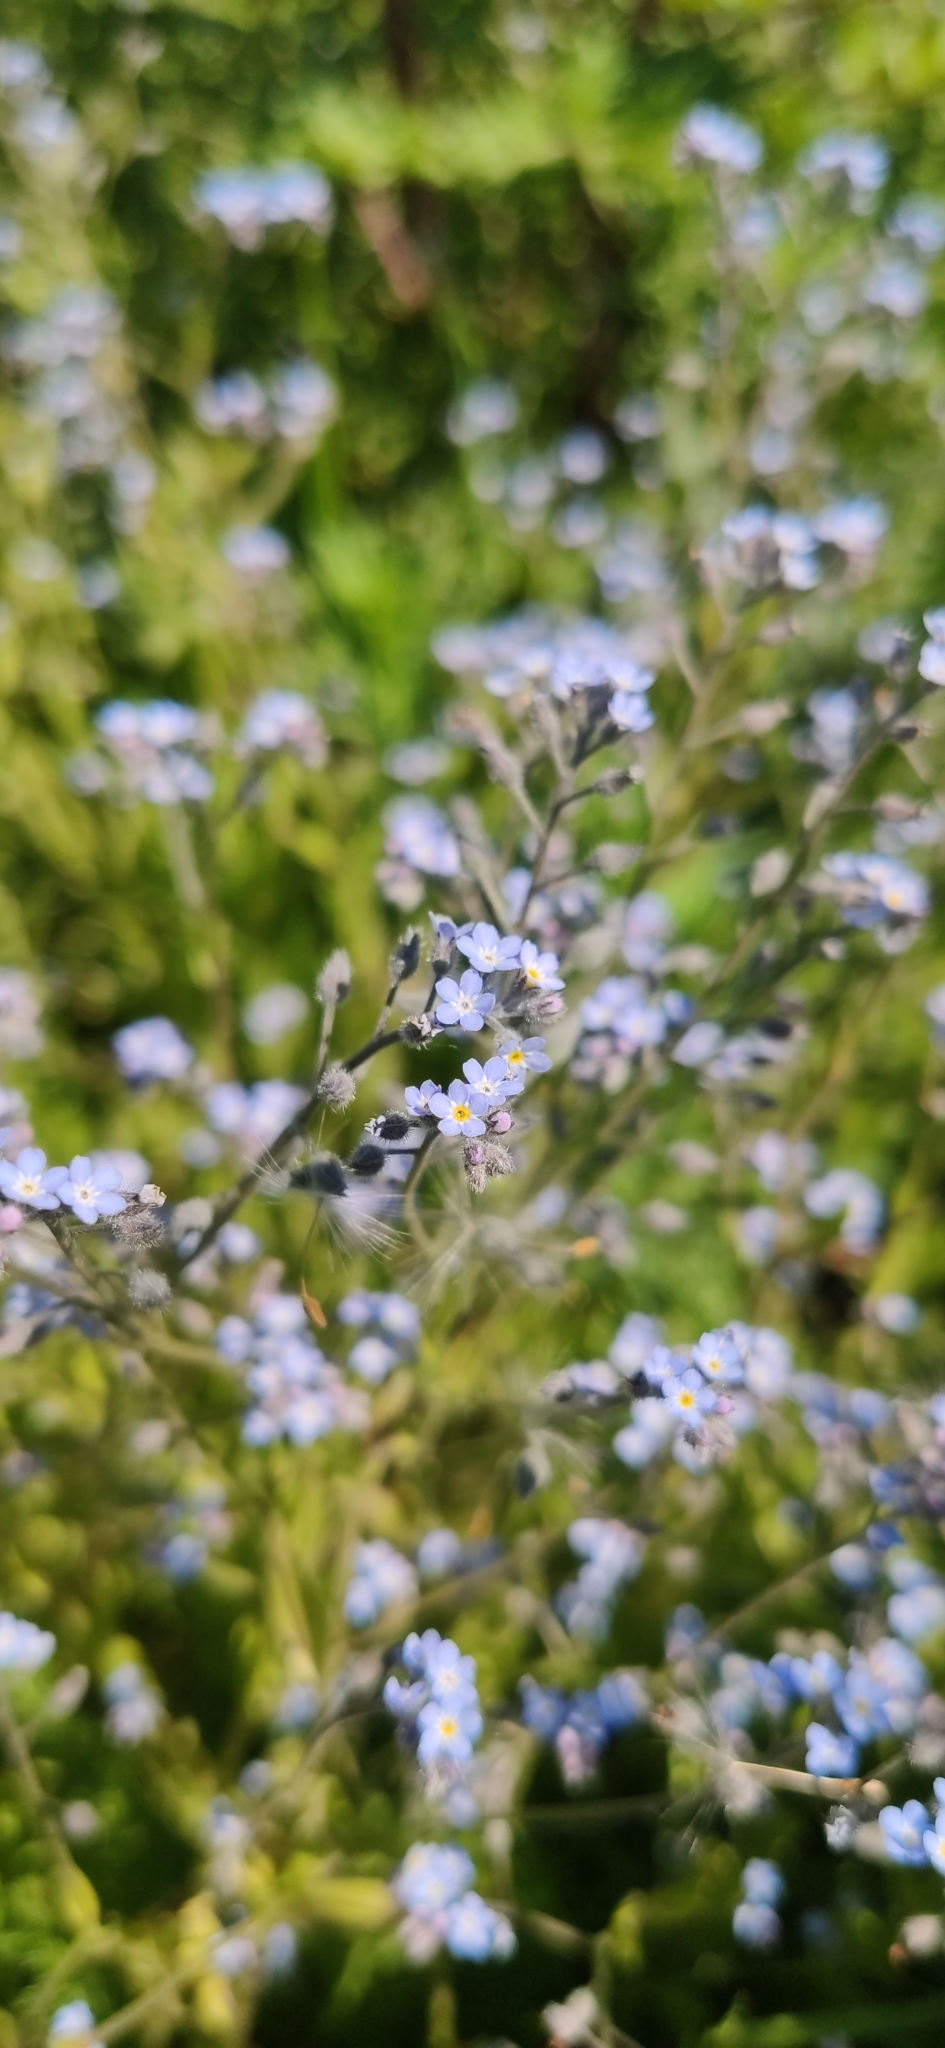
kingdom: Plantae
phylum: Tracheophyta
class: Magnoliopsida
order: Boraginales
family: Boraginaceae
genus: Myosotis
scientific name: Myosotis arvensis
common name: Field forget-me-not
